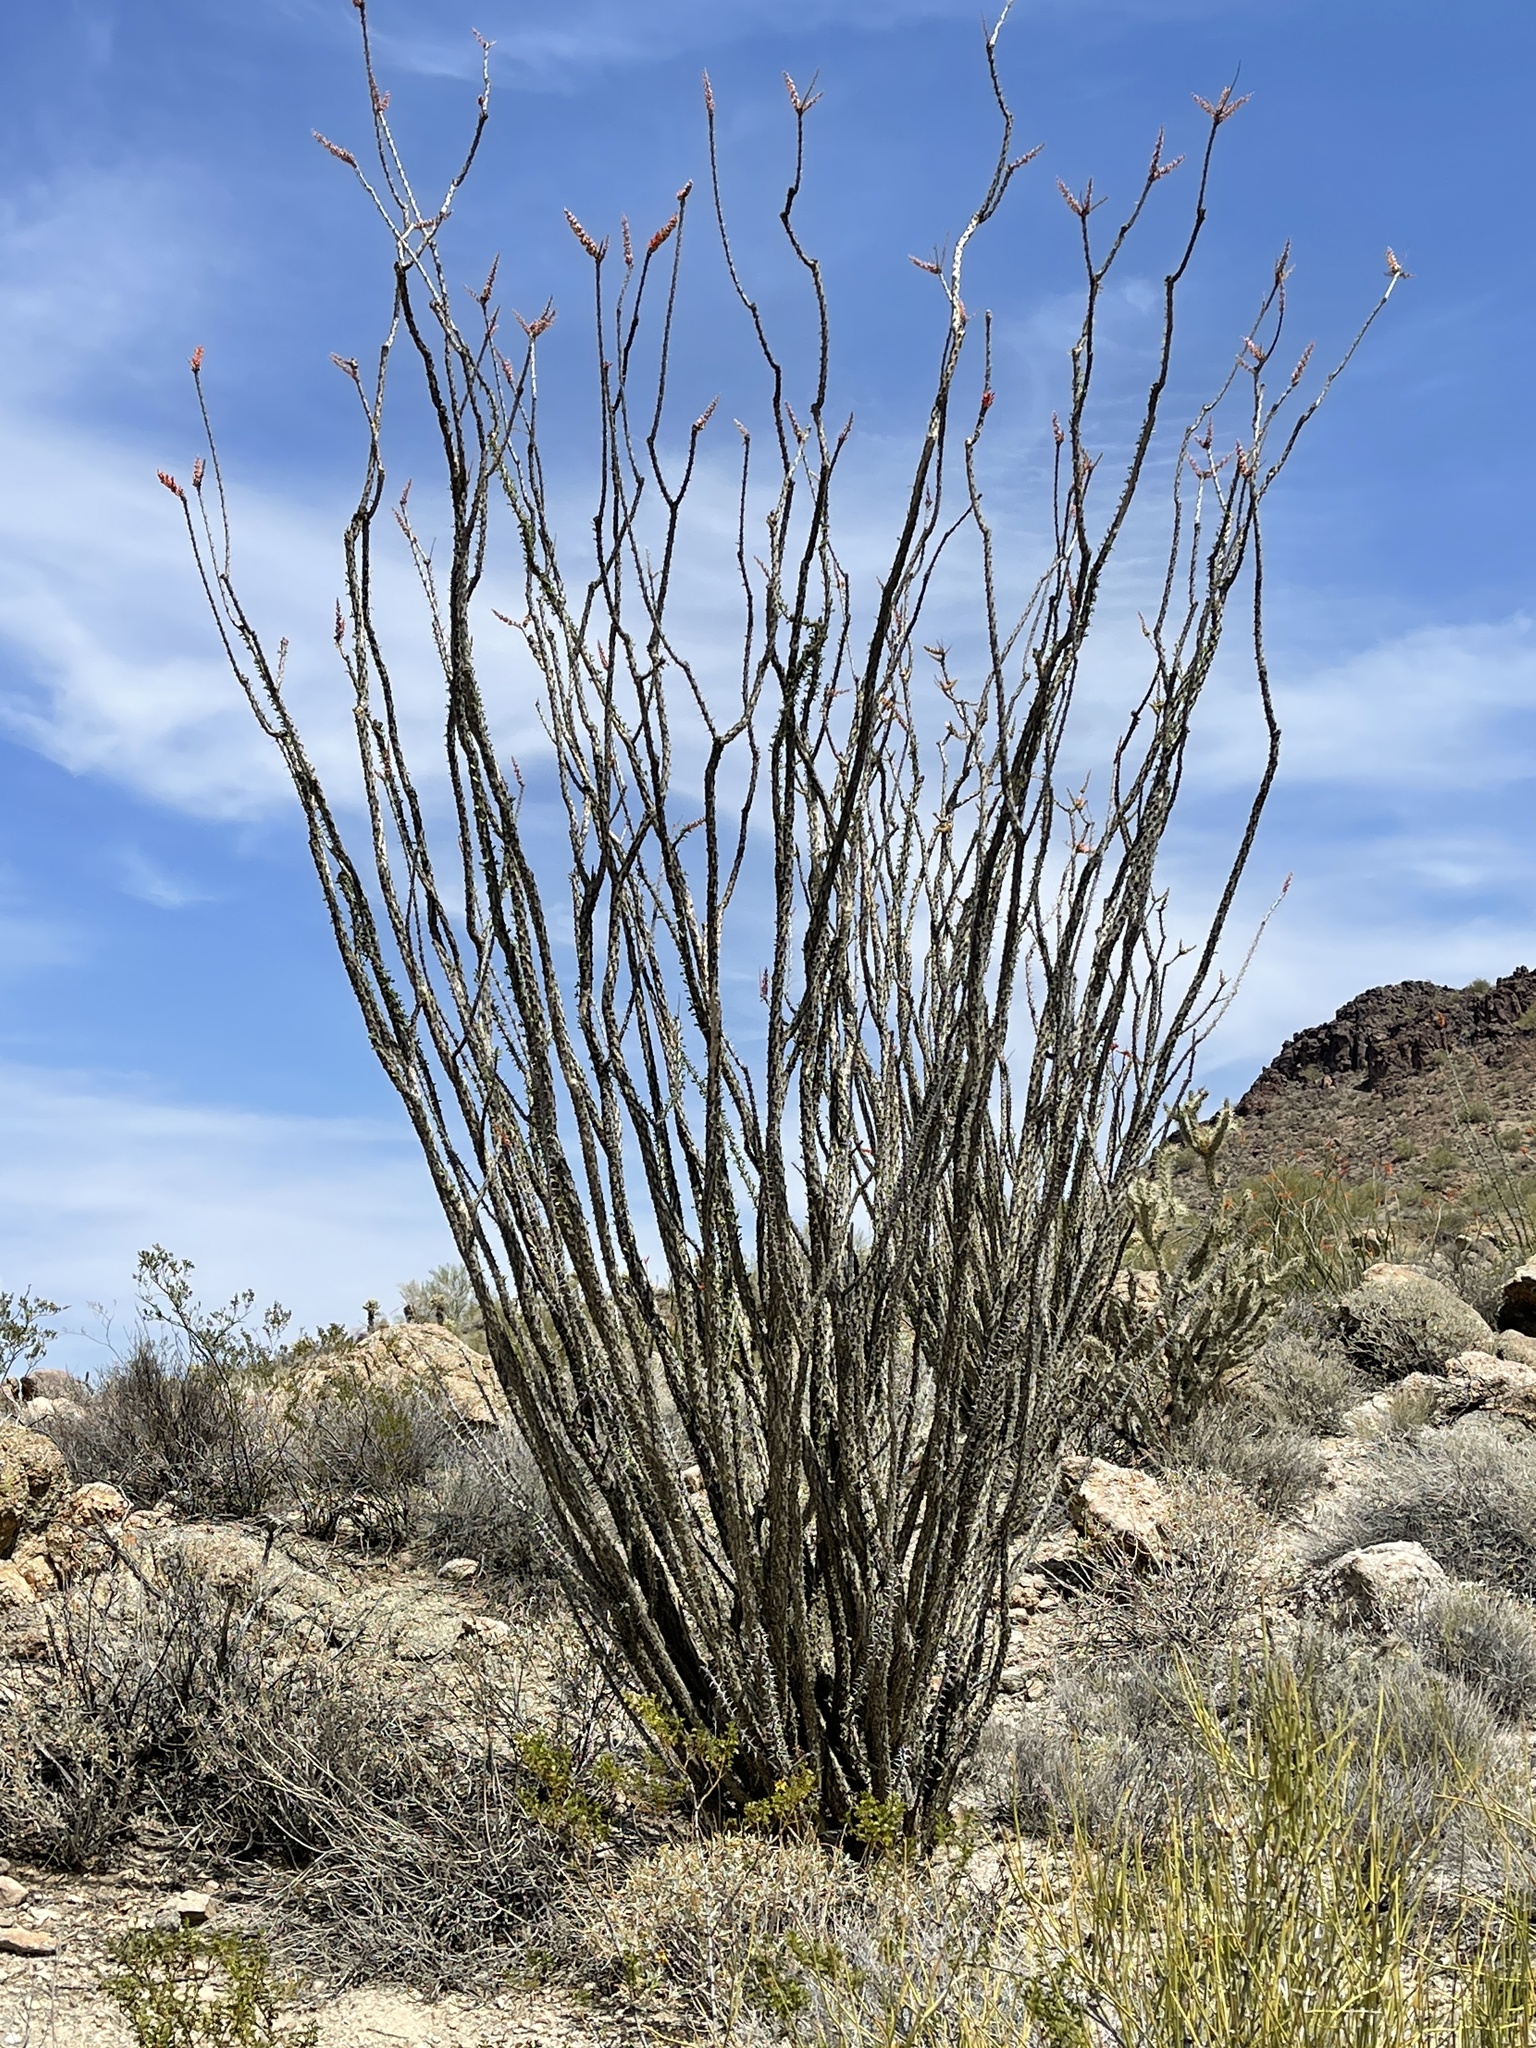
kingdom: Plantae
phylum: Tracheophyta
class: Magnoliopsida
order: Ericales
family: Fouquieriaceae
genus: Fouquieria
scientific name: Fouquieria splendens
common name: Vine-cactus
